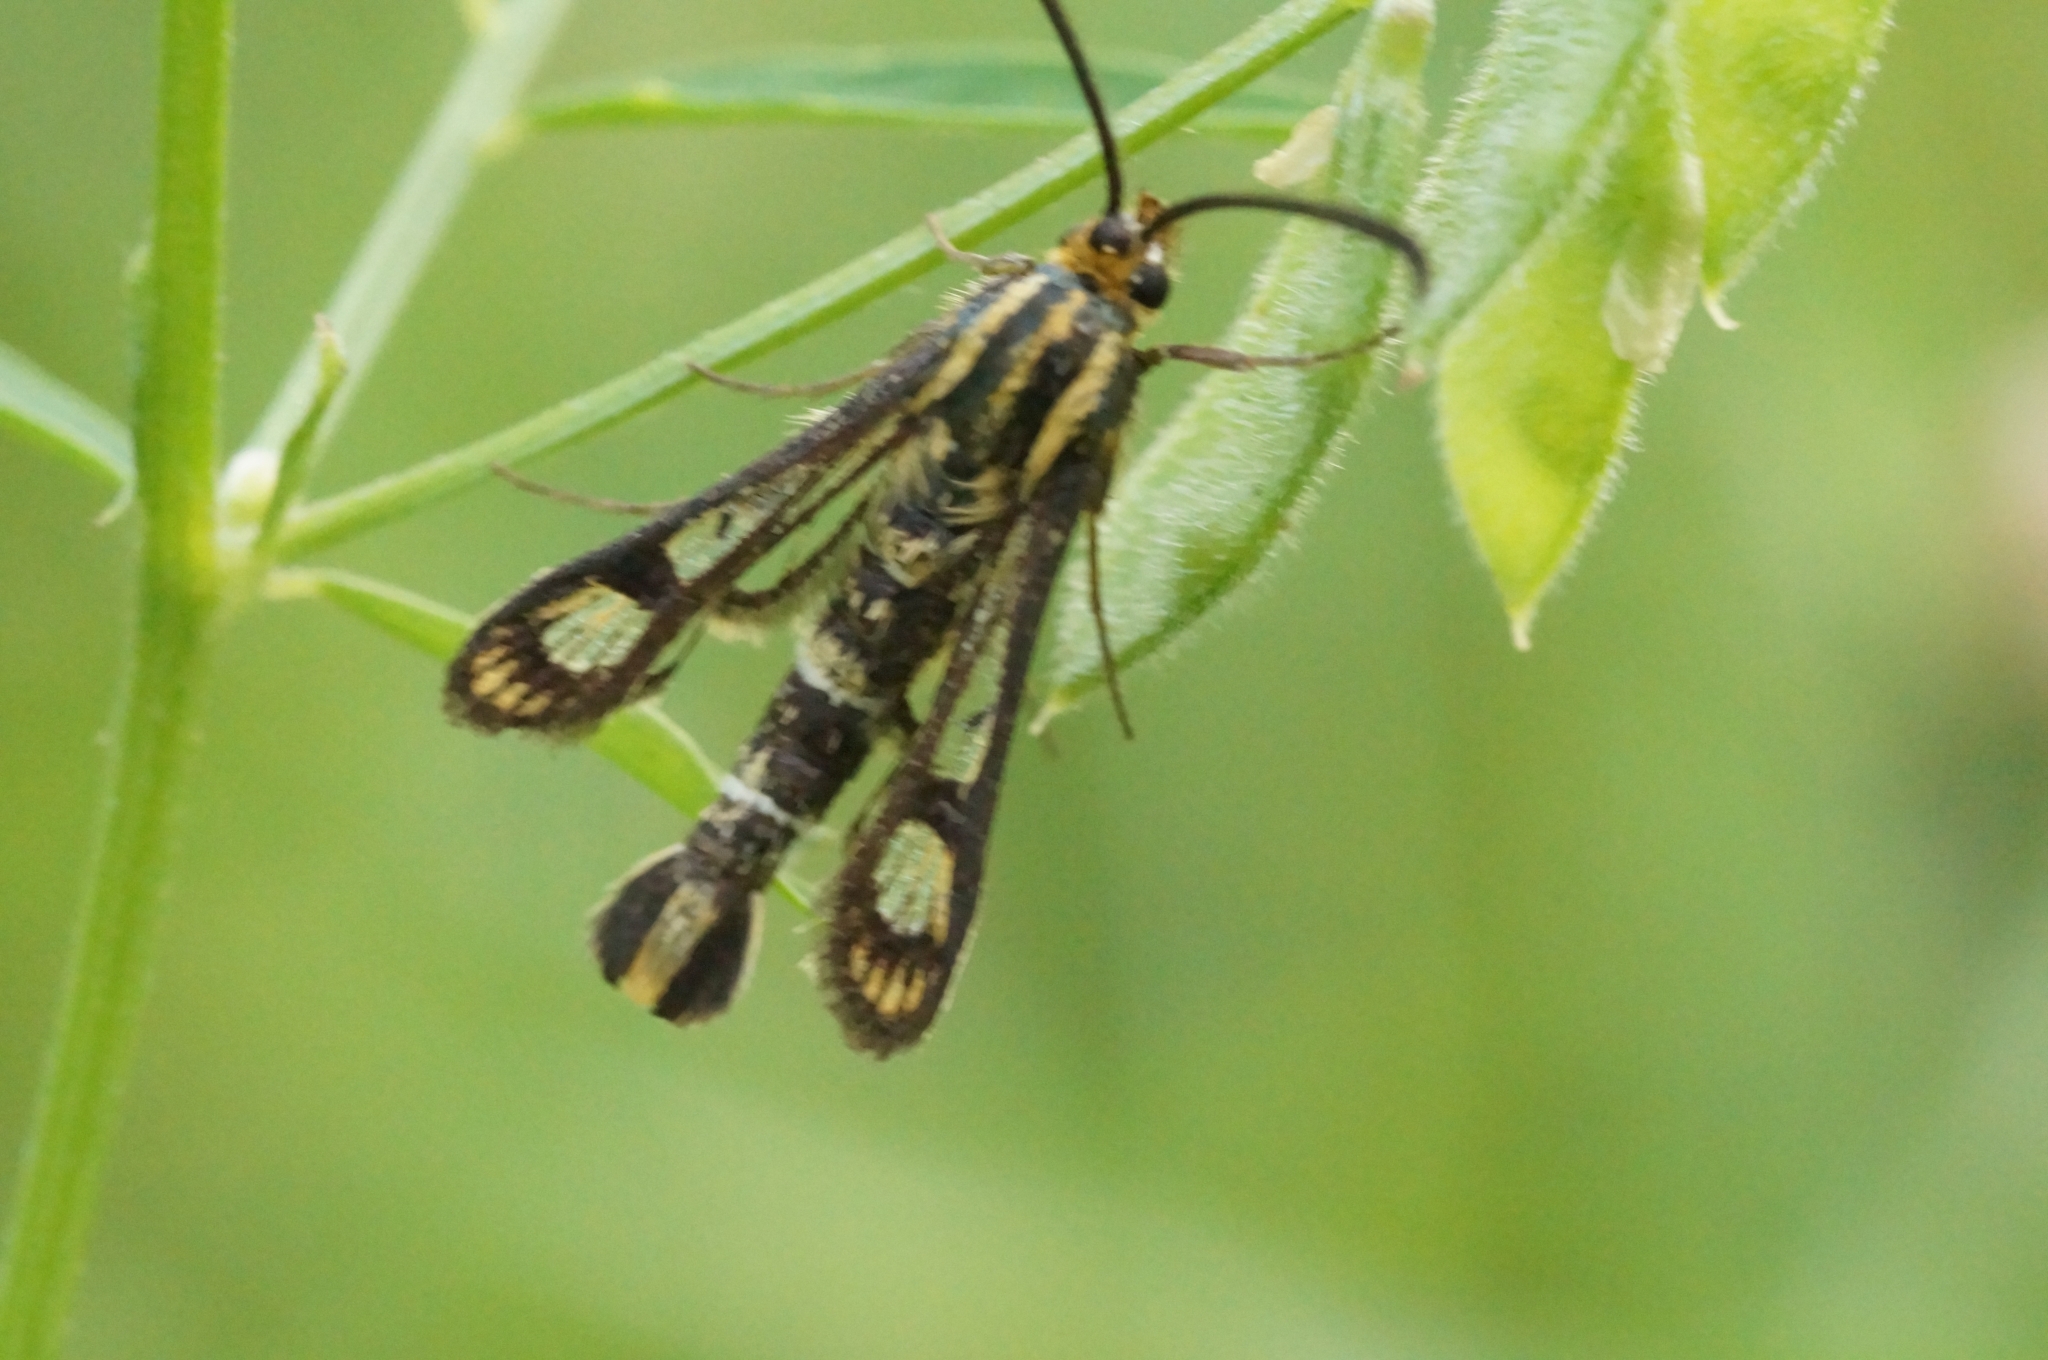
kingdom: Animalia
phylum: Arthropoda
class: Insecta
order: Lepidoptera
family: Sesiidae
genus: Chamaesphecia
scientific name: Chamaesphecia astatiformis
